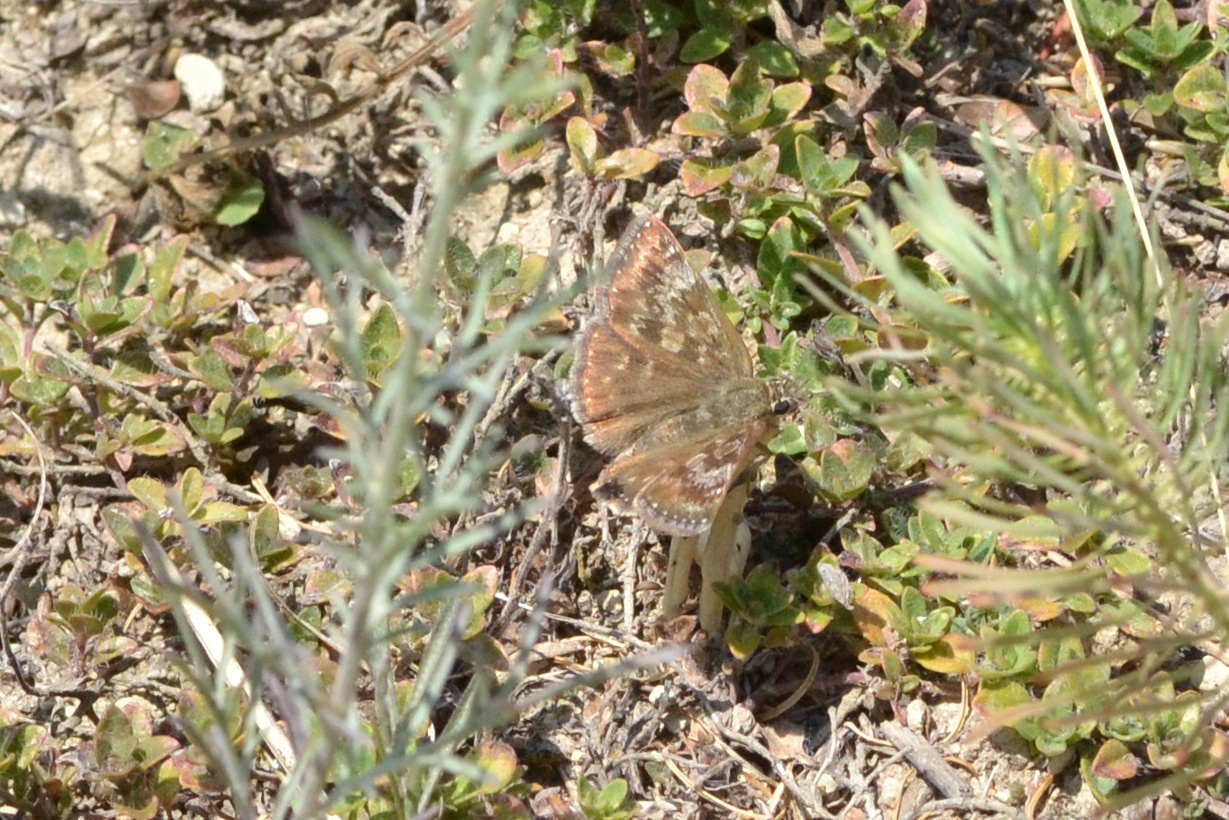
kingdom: Animalia
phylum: Arthropoda
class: Insecta
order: Lepidoptera
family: Hesperiidae
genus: Erynnis
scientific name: Erynnis tages
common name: Dingy skipper
